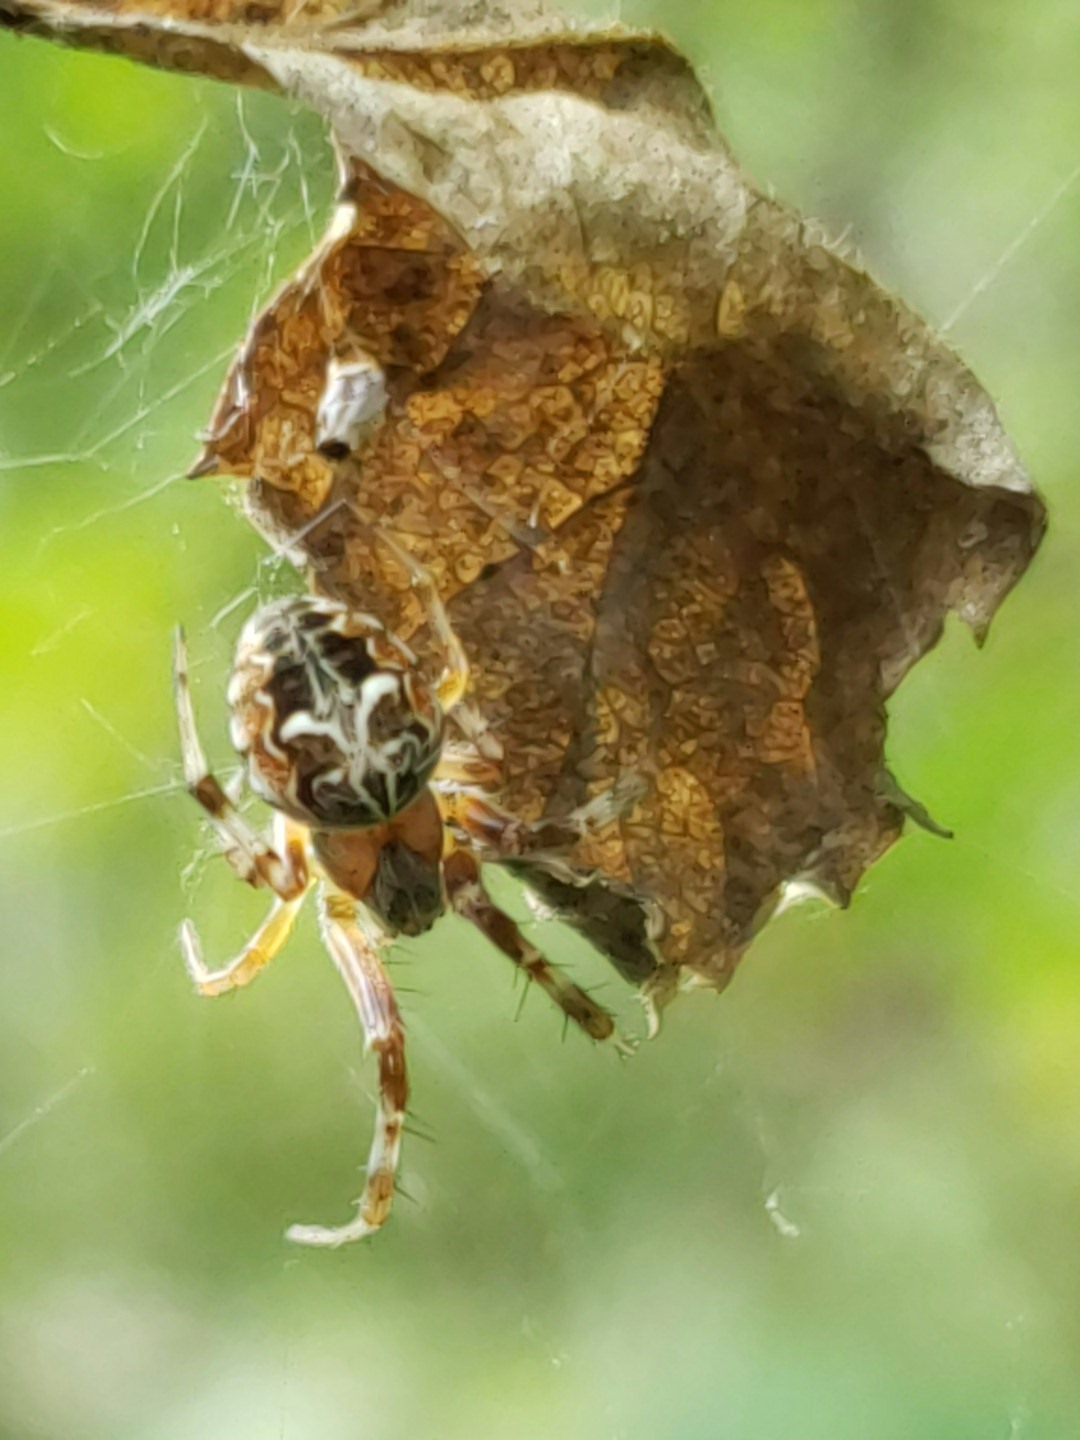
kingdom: Animalia
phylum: Arthropoda
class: Arachnida
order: Araneae
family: Araneidae
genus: Metepeira
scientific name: Metepeira labyrinthea
